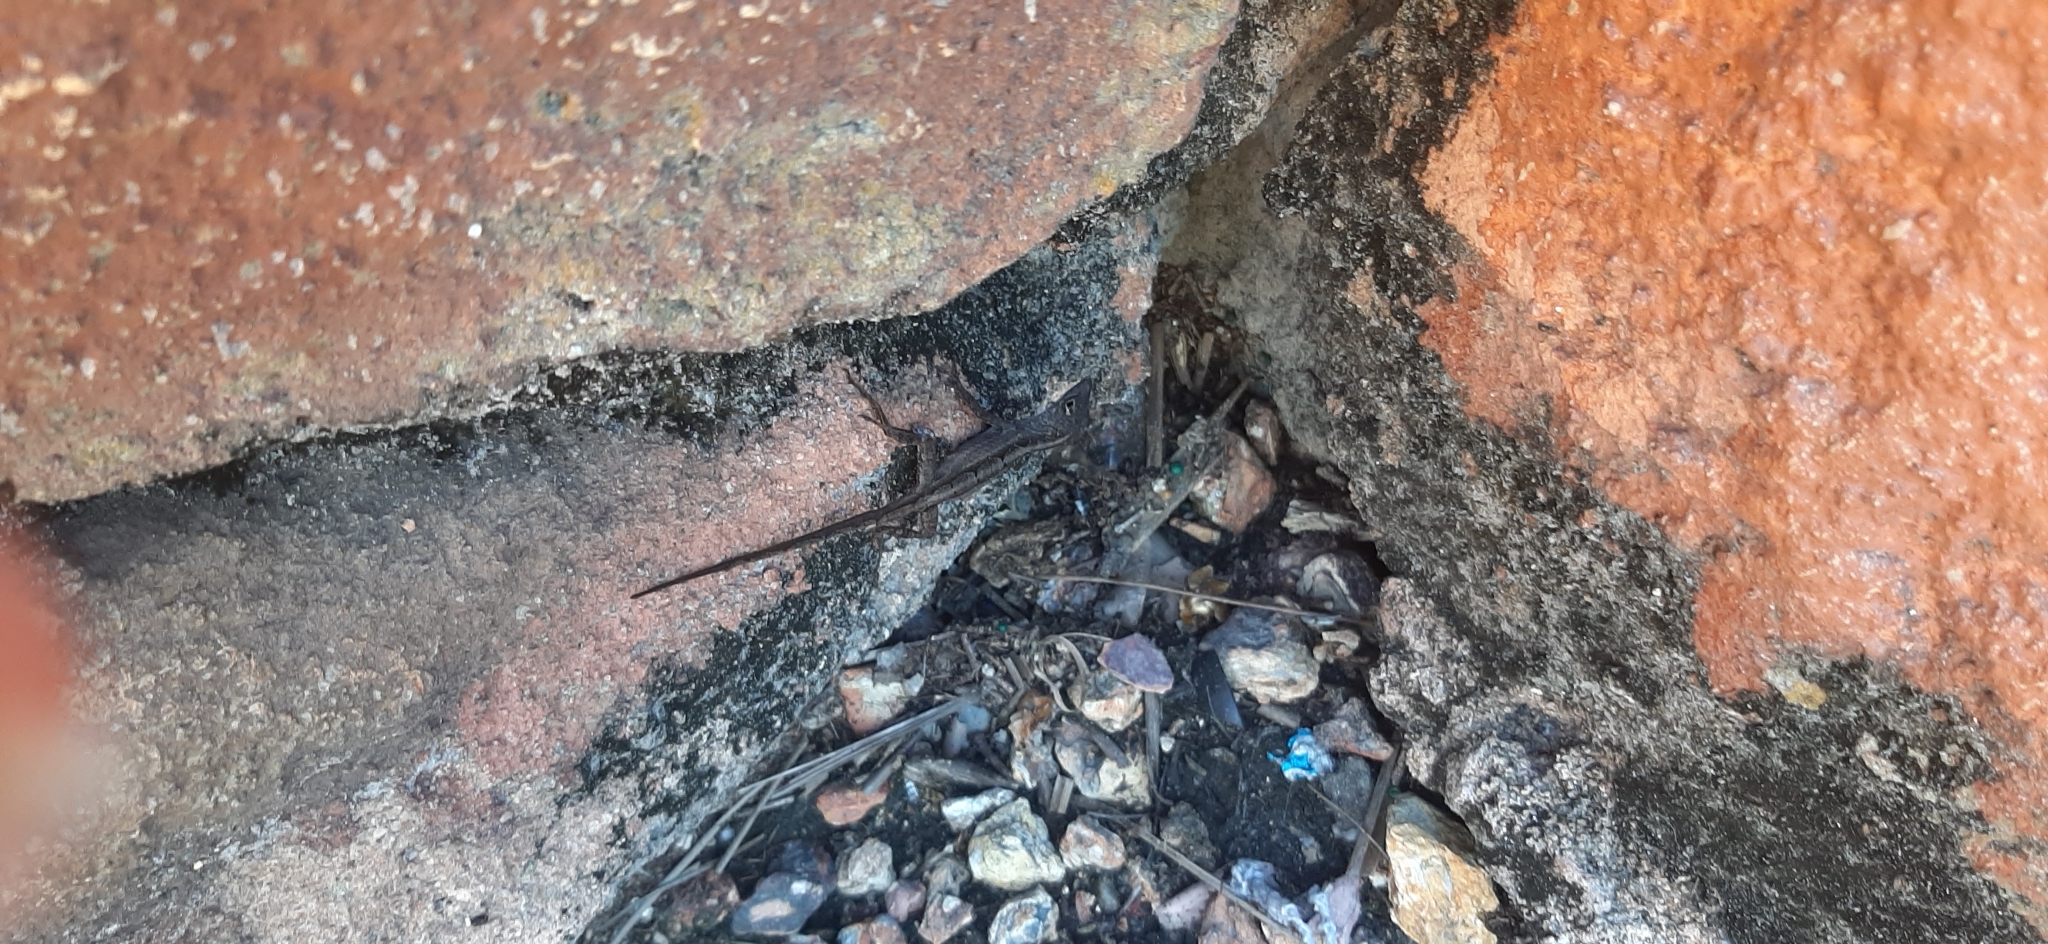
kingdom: Animalia
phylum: Chordata
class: Squamata
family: Dactyloidae
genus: Anolis
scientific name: Anolis sagrei
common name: Brown anole
